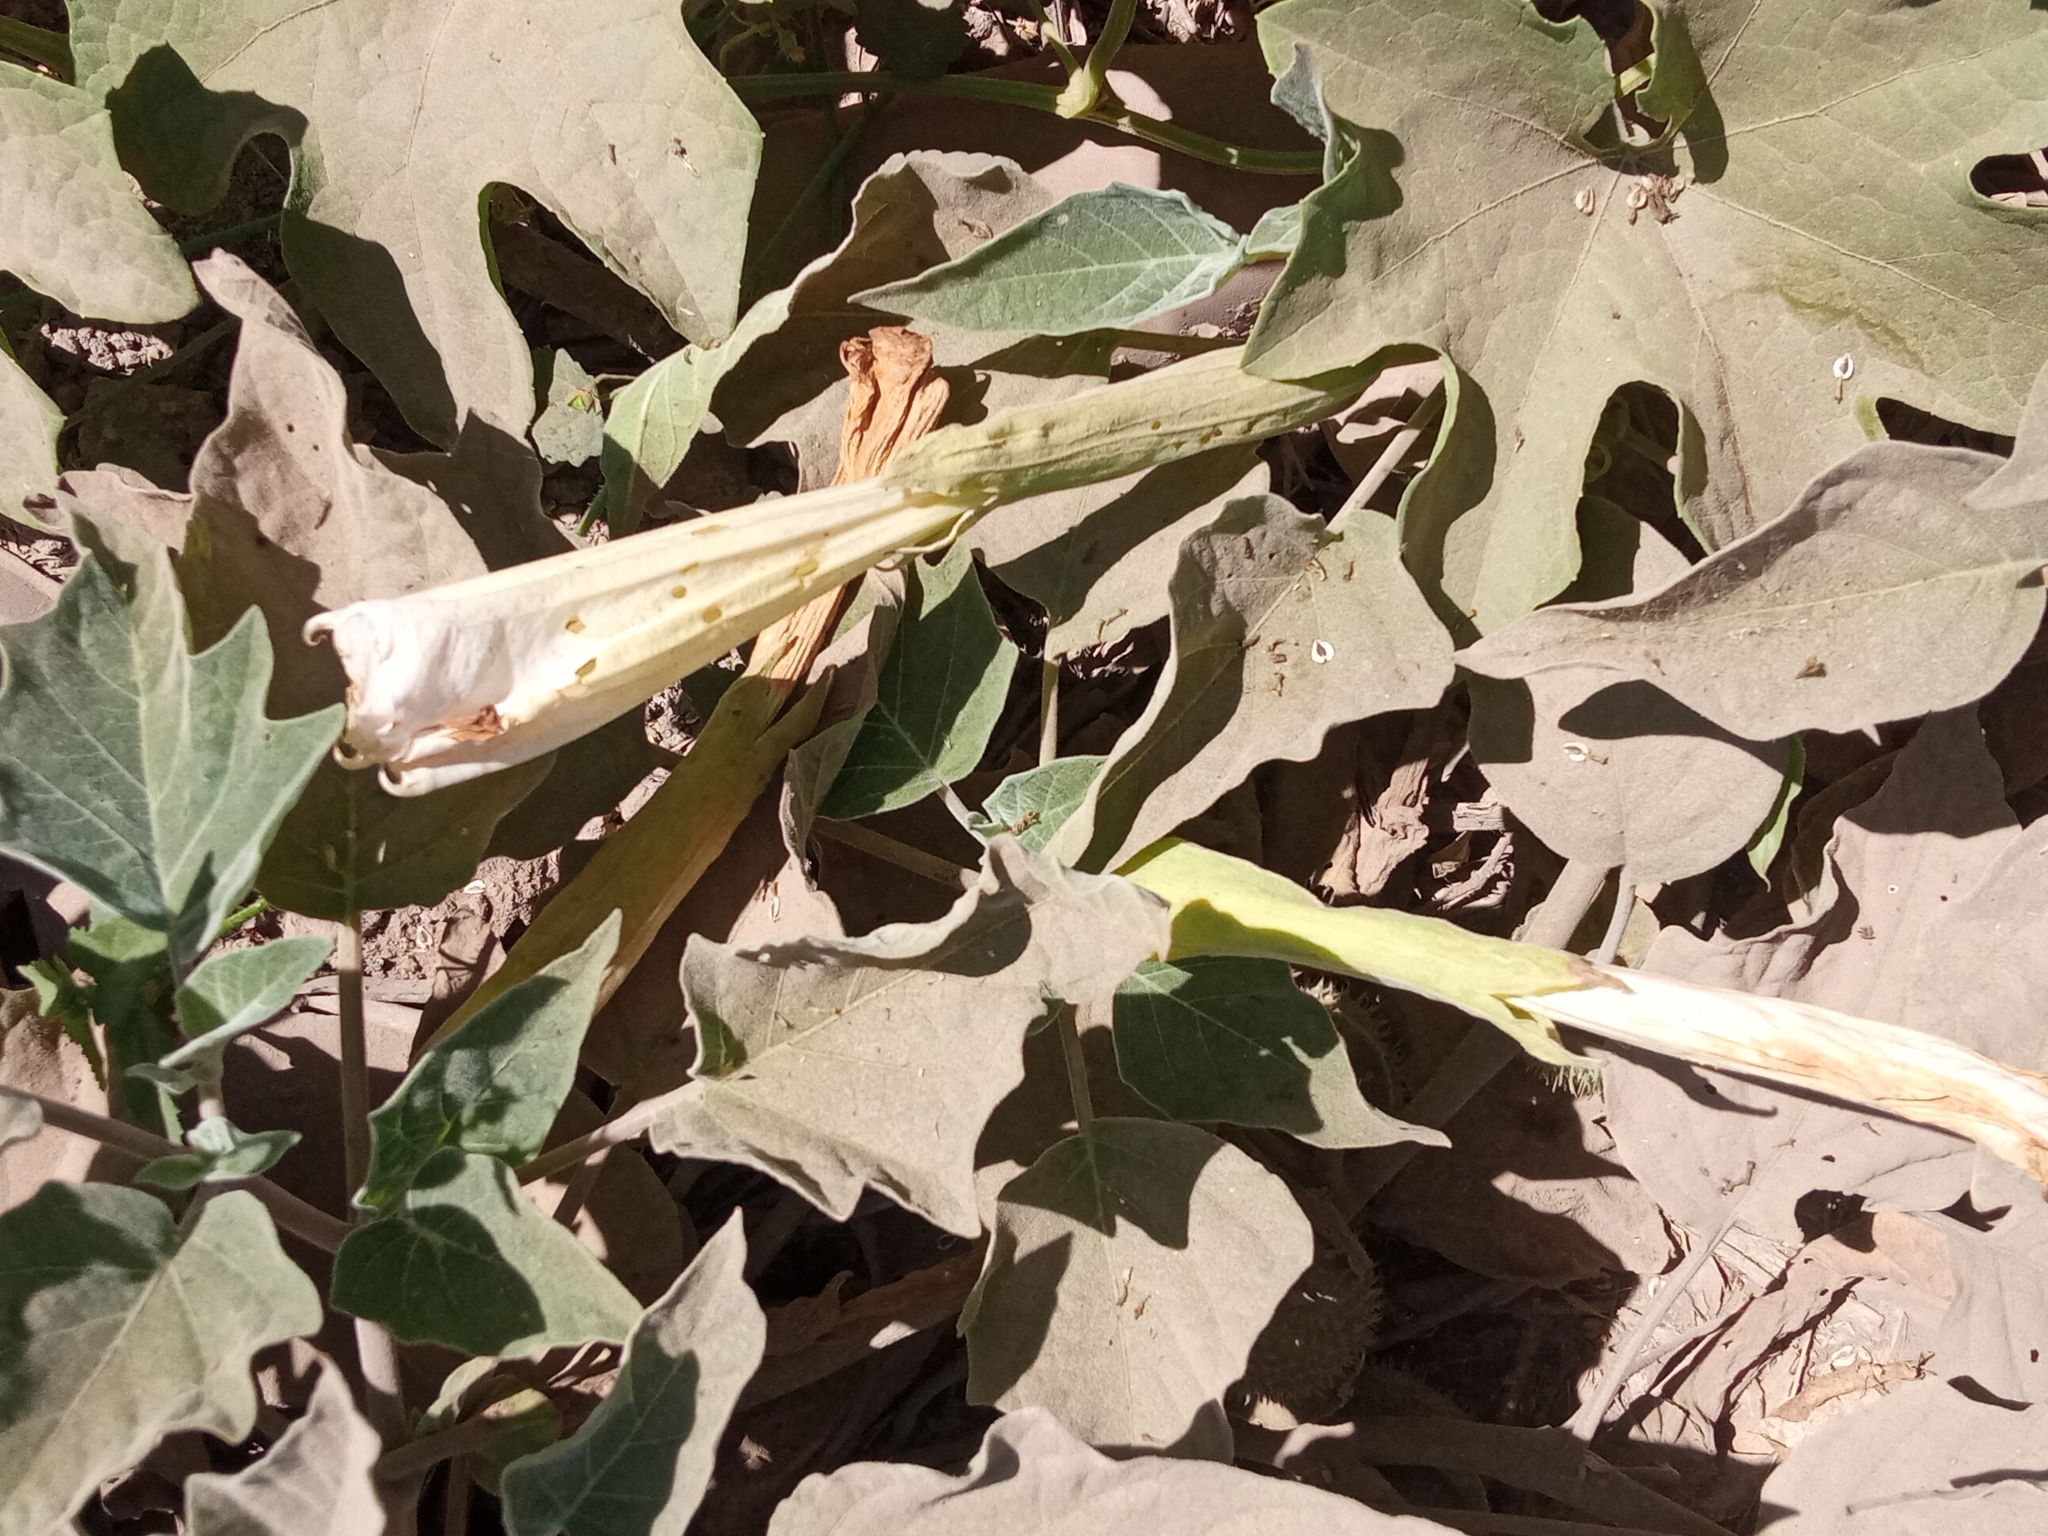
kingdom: Plantae
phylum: Tracheophyta
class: Magnoliopsida
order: Solanales
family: Solanaceae
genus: Datura
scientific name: Datura wrightii
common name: Sacred thorn-apple
